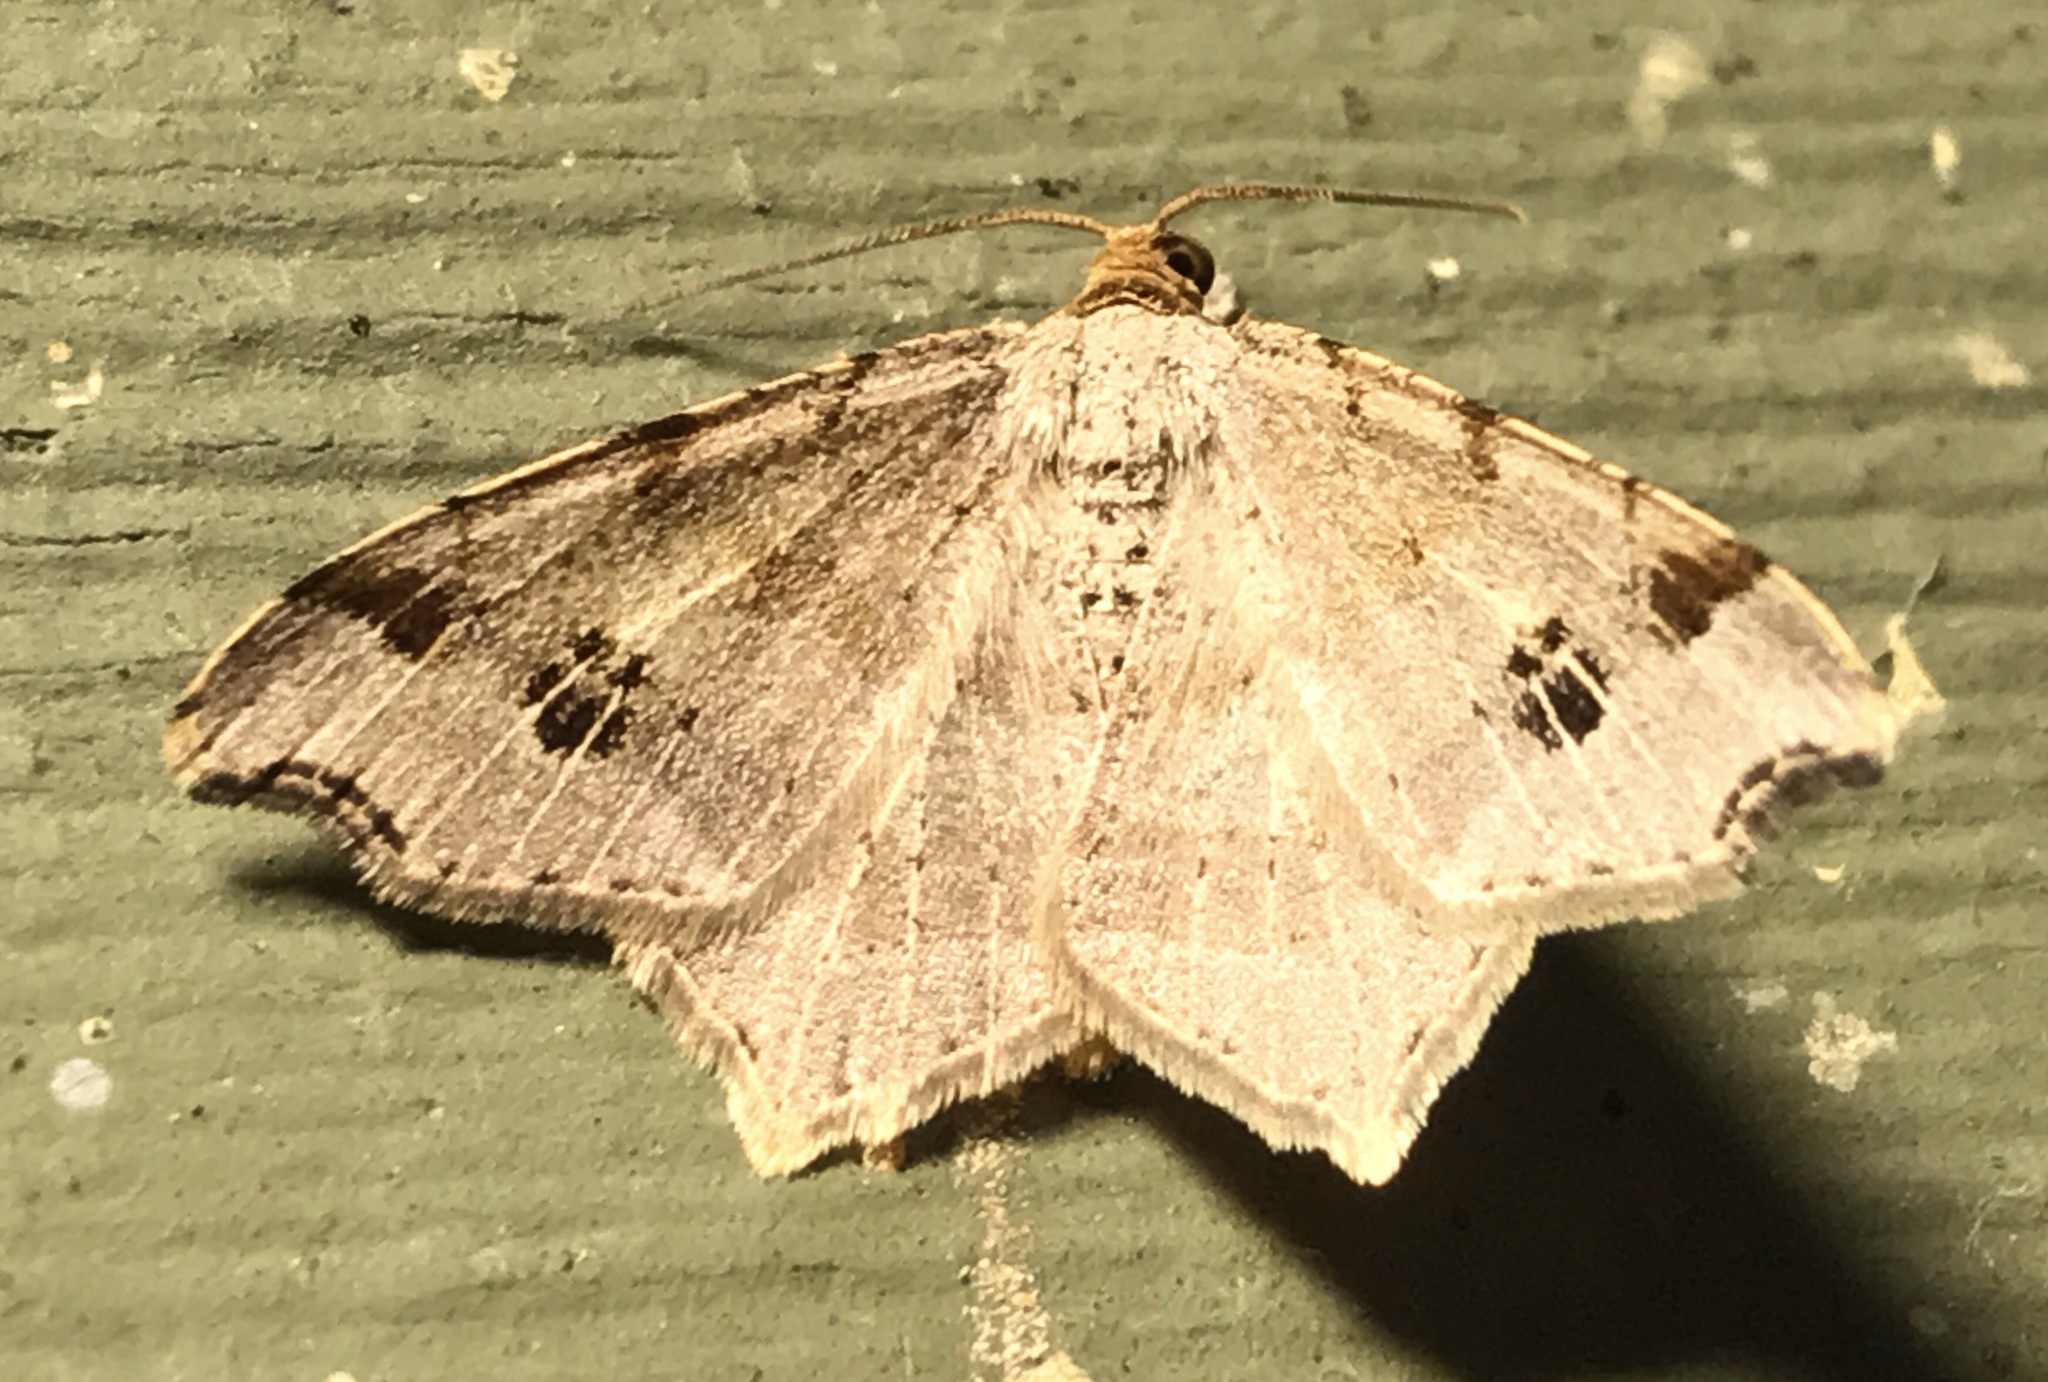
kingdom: Animalia
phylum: Arthropoda
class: Insecta
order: Lepidoptera
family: Geometridae
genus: Macaria
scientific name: Macaria aemulataria
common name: Common angle
